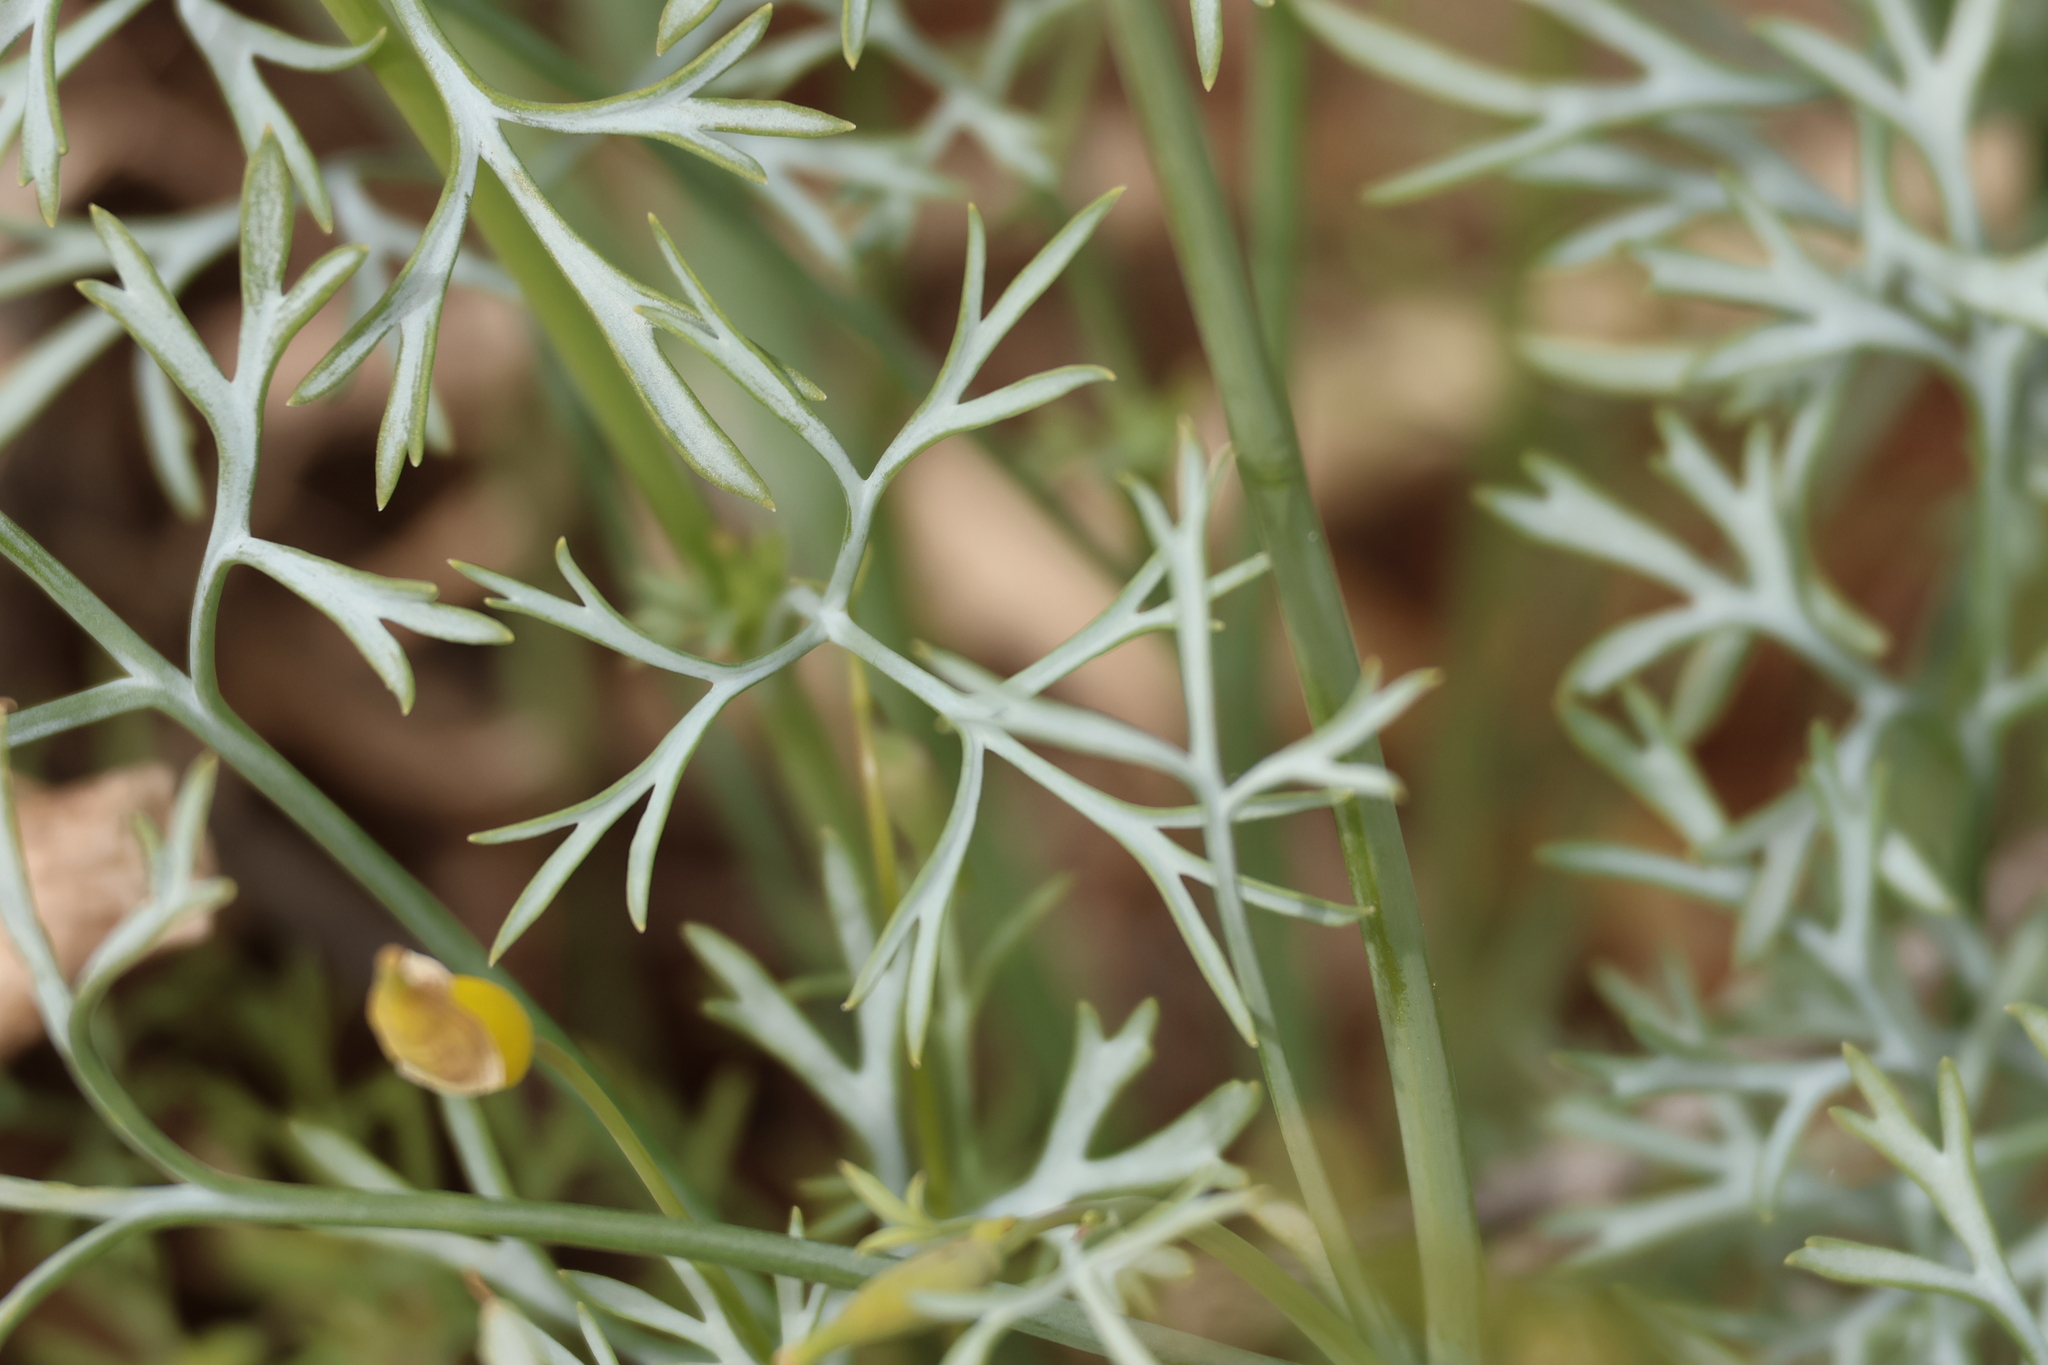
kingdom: Plantae
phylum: Tracheophyta
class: Magnoliopsida
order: Ranunculales
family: Papaveraceae
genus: Eschscholzia
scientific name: Eschscholzia parishii
